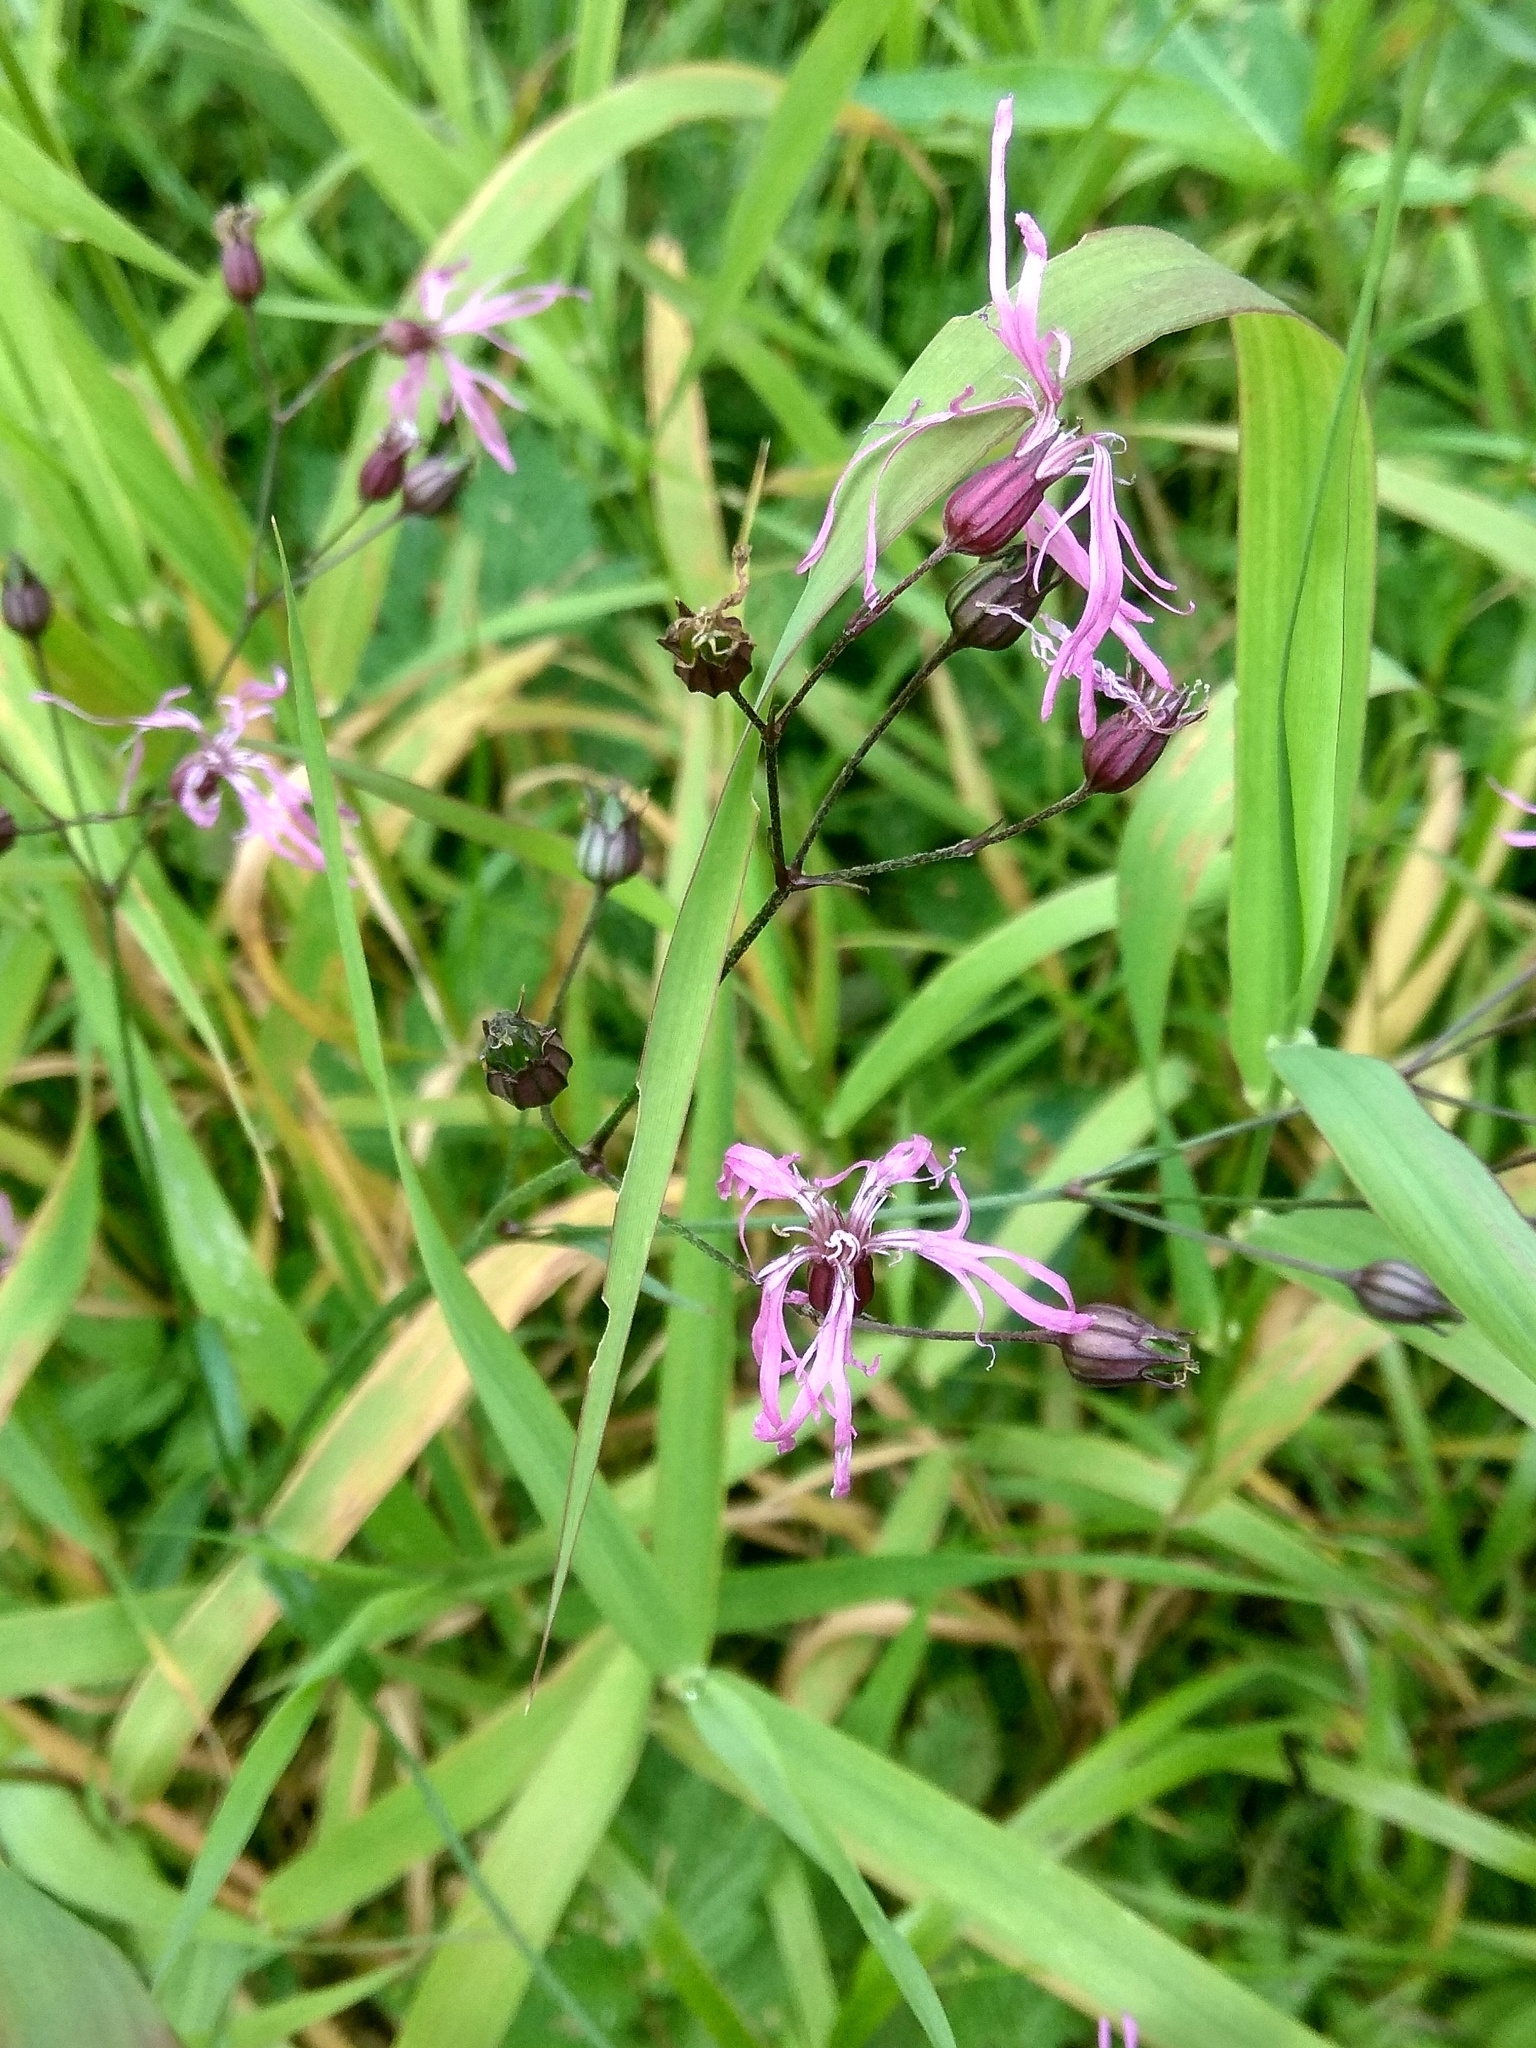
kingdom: Plantae
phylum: Tracheophyta
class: Magnoliopsida
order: Caryophyllales
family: Caryophyllaceae
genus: Silene
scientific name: Silene flos-cuculi
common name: Ragged-robin
